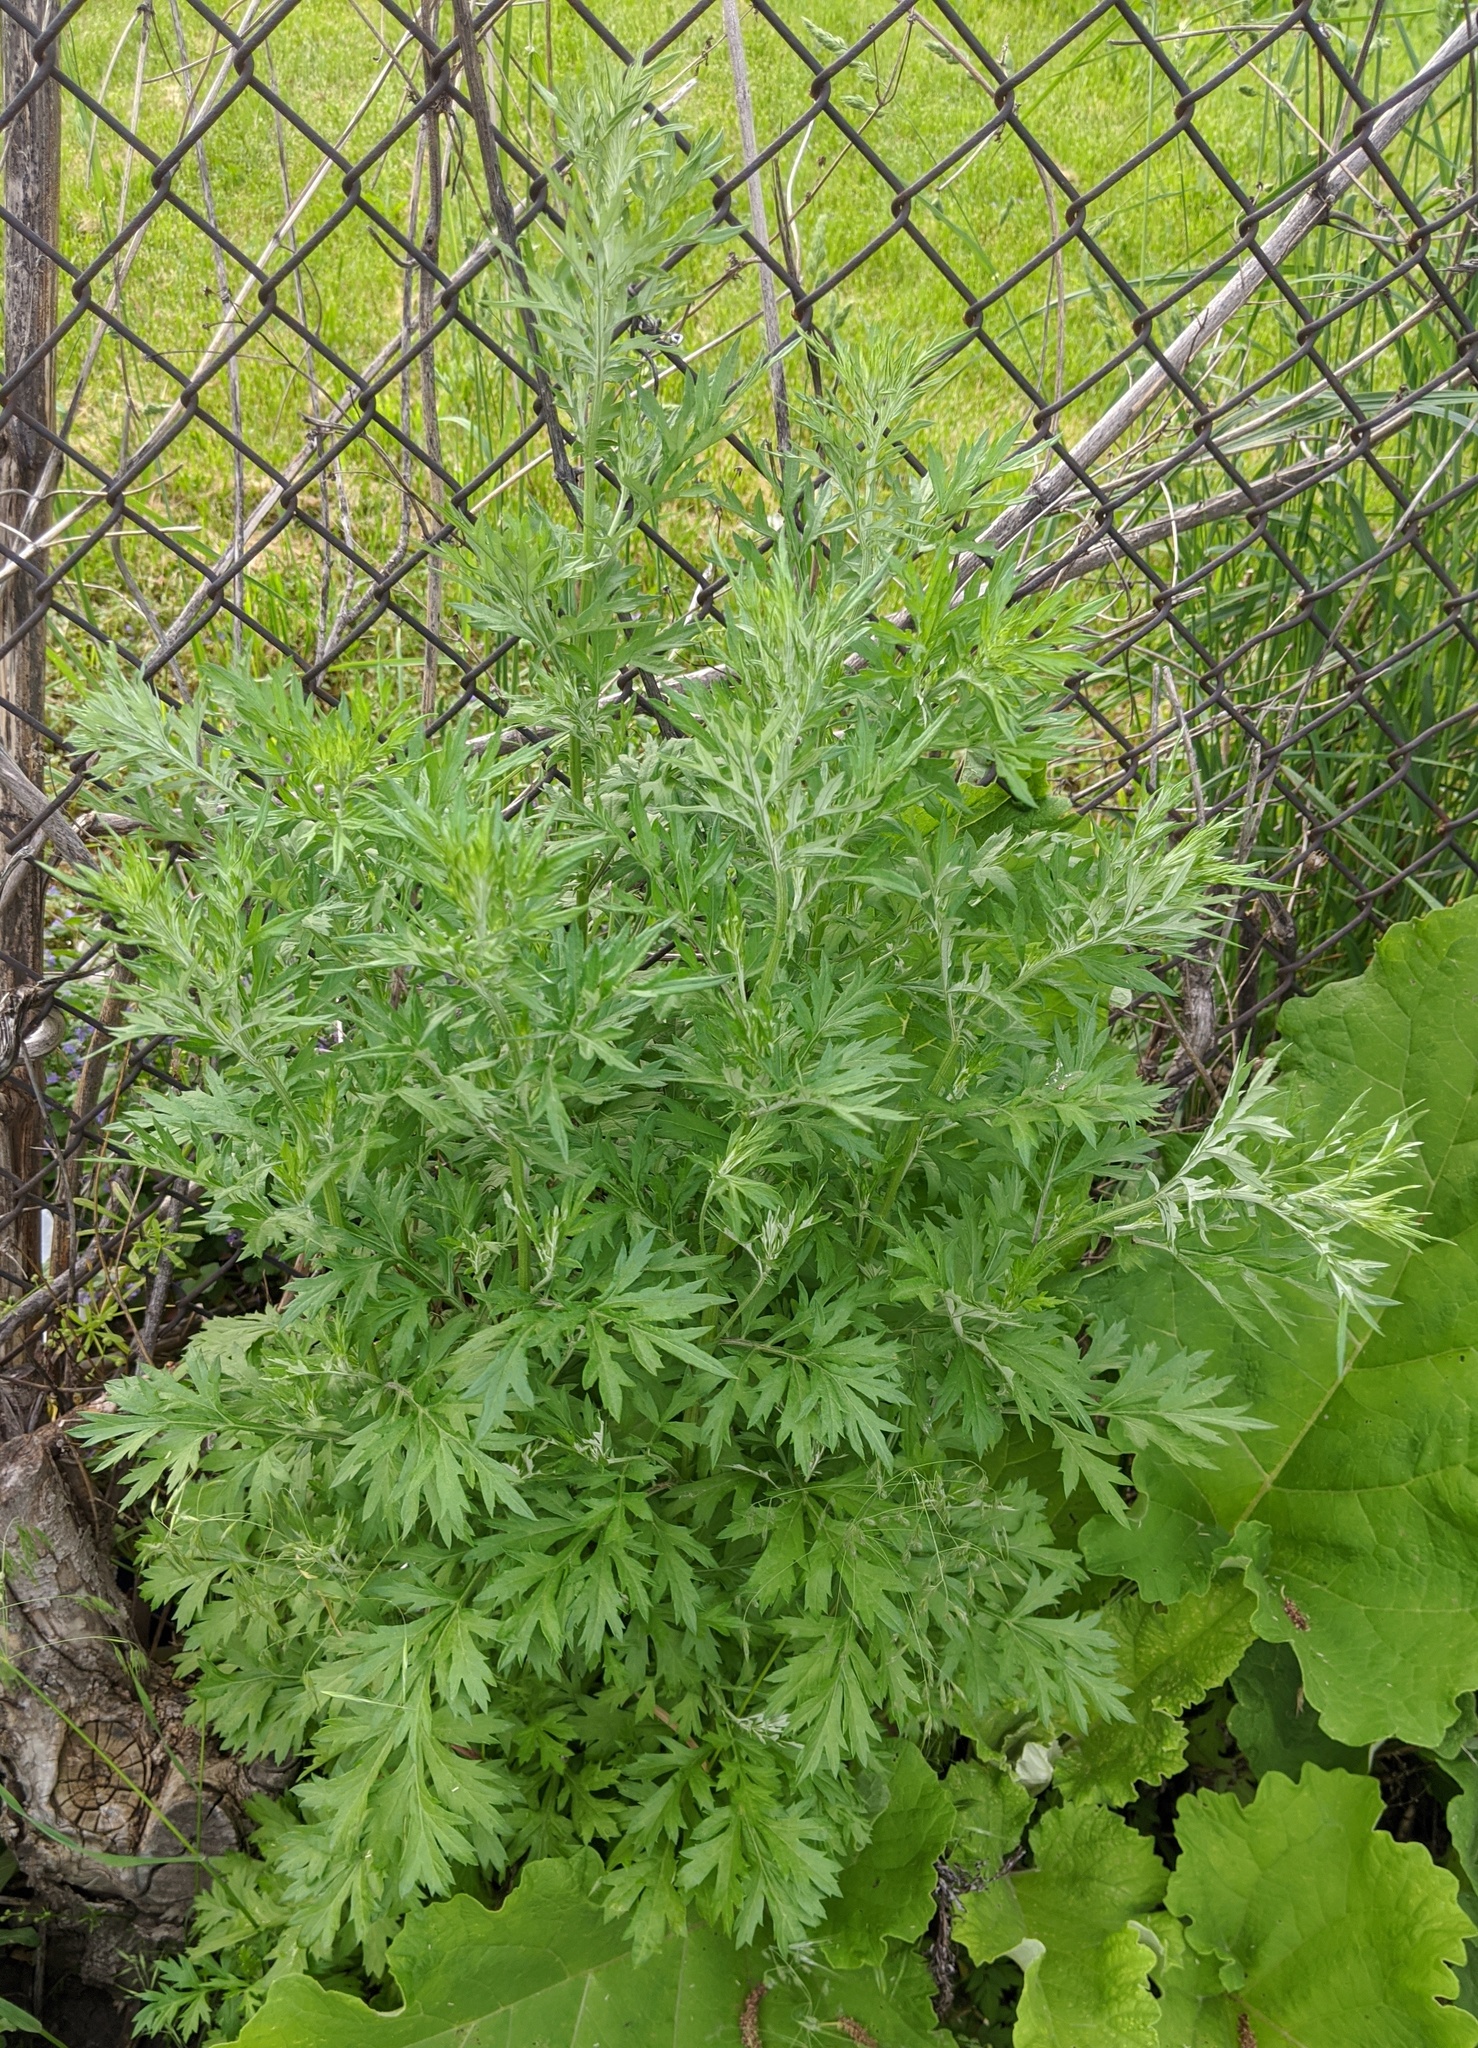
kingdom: Plantae
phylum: Tracheophyta
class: Magnoliopsida
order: Asterales
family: Asteraceae
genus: Artemisia
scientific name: Artemisia vulgaris
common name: Mugwort
